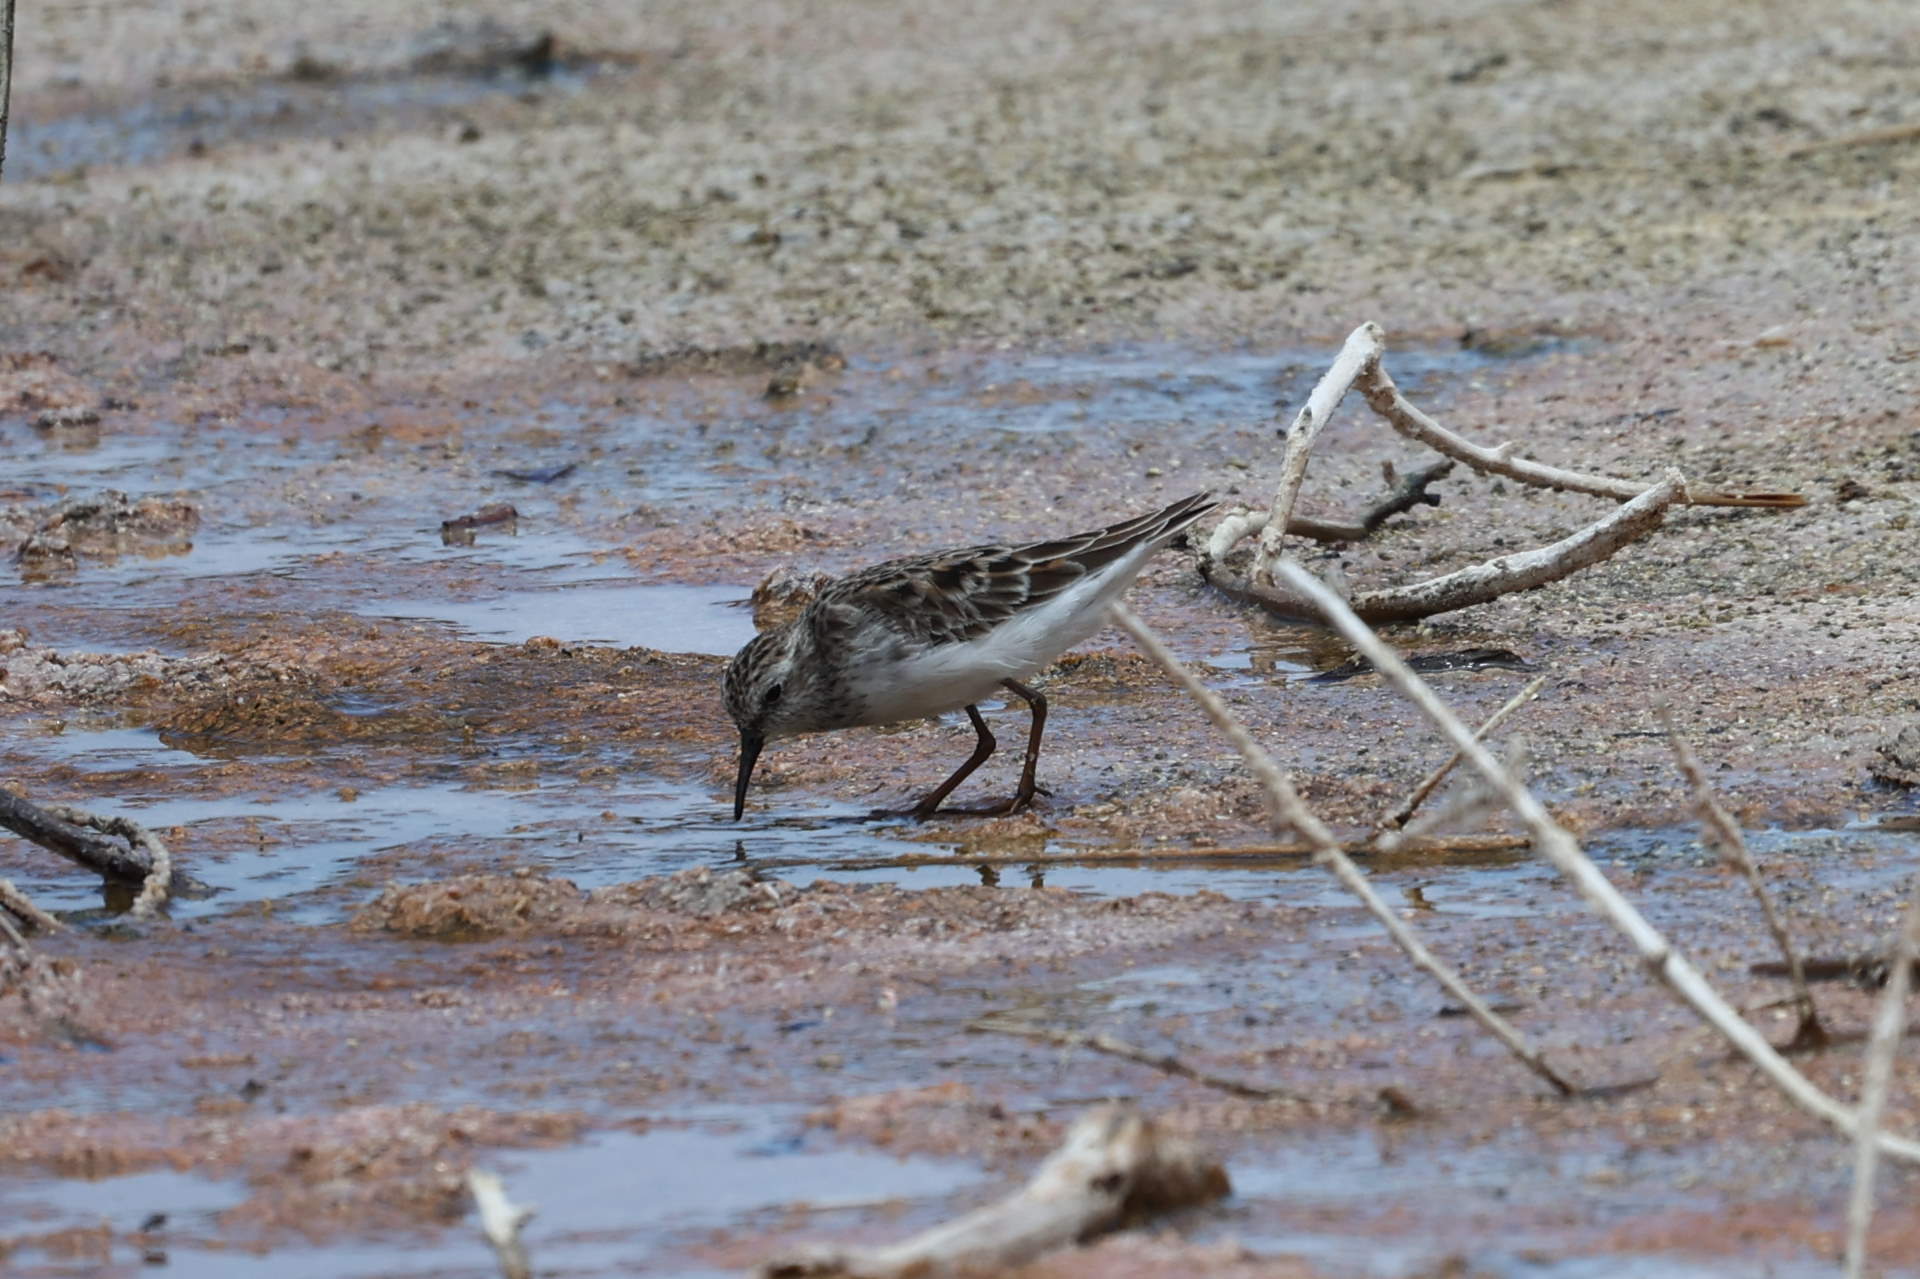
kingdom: Animalia
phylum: Chordata
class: Aves
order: Charadriiformes
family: Scolopacidae
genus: Calidris
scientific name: Calidris minutilla
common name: Least sandpiper
